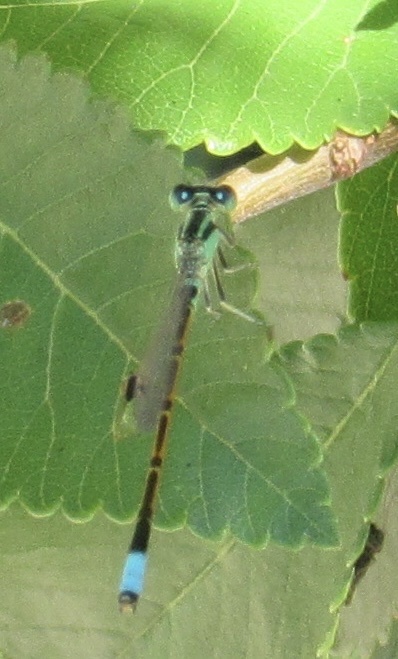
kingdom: Animalia
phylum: Arthropoda
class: Insecta
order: Odonata
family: Coenagrionidae
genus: Ischnura
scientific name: Ischnura barberi
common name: Desert forktail
